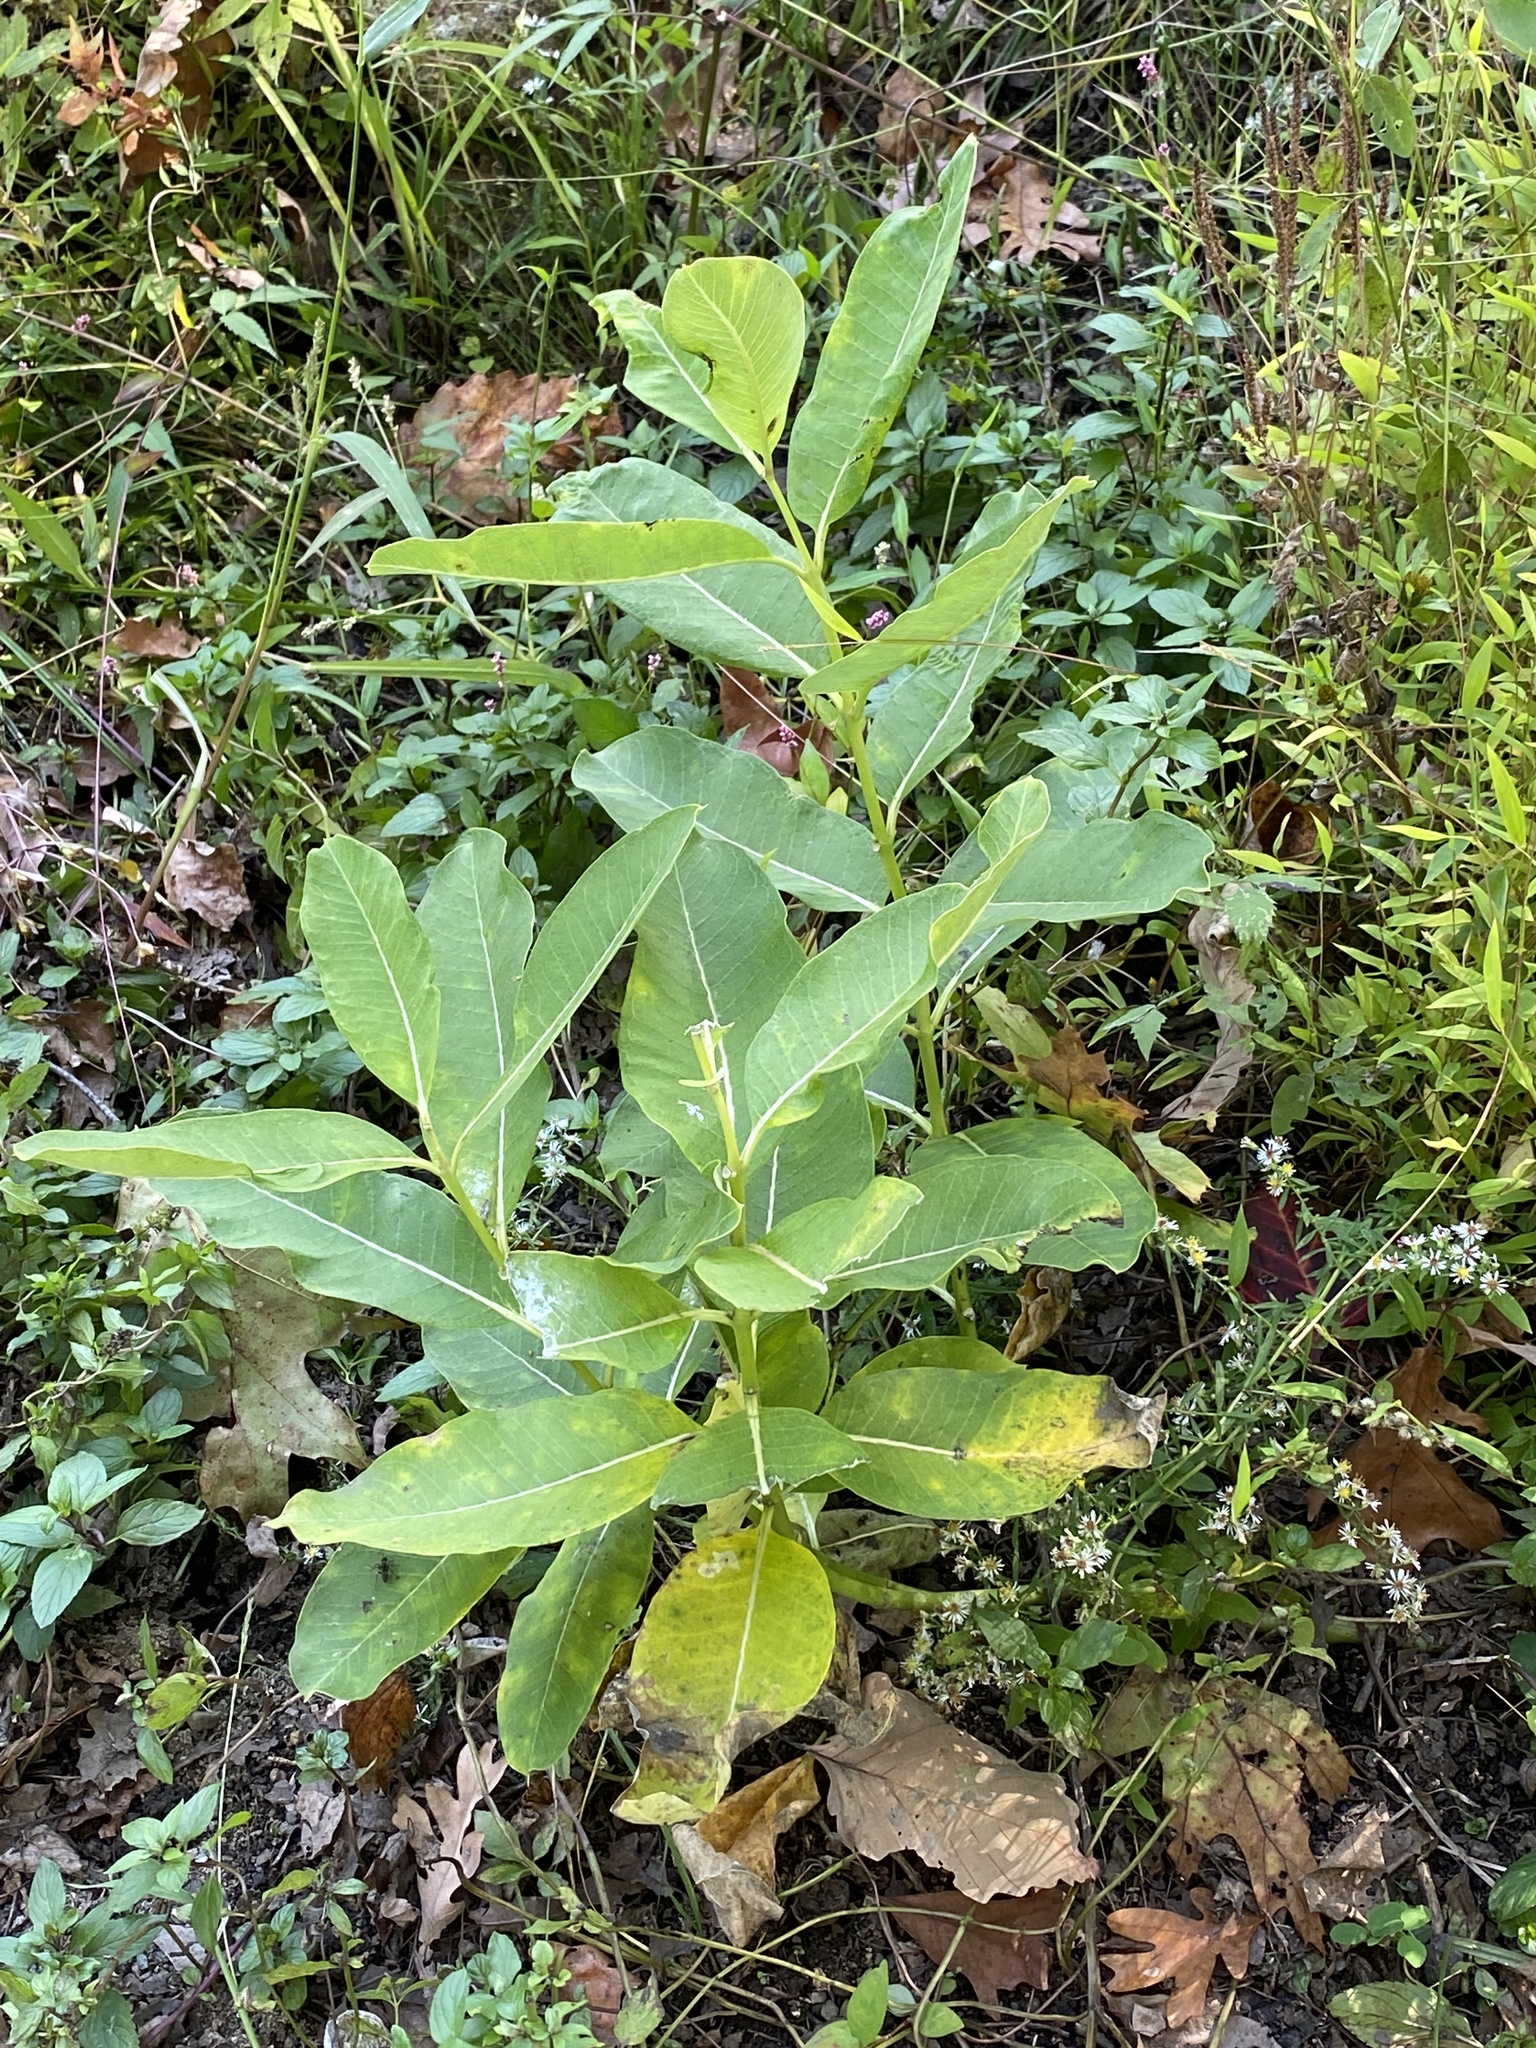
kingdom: Plantae
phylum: Tracheophyta
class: Magnoliopsida
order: Gentianales
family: Apocynaceae
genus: Asclepias
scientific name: Asclepias syriaca
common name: Common milkweed
